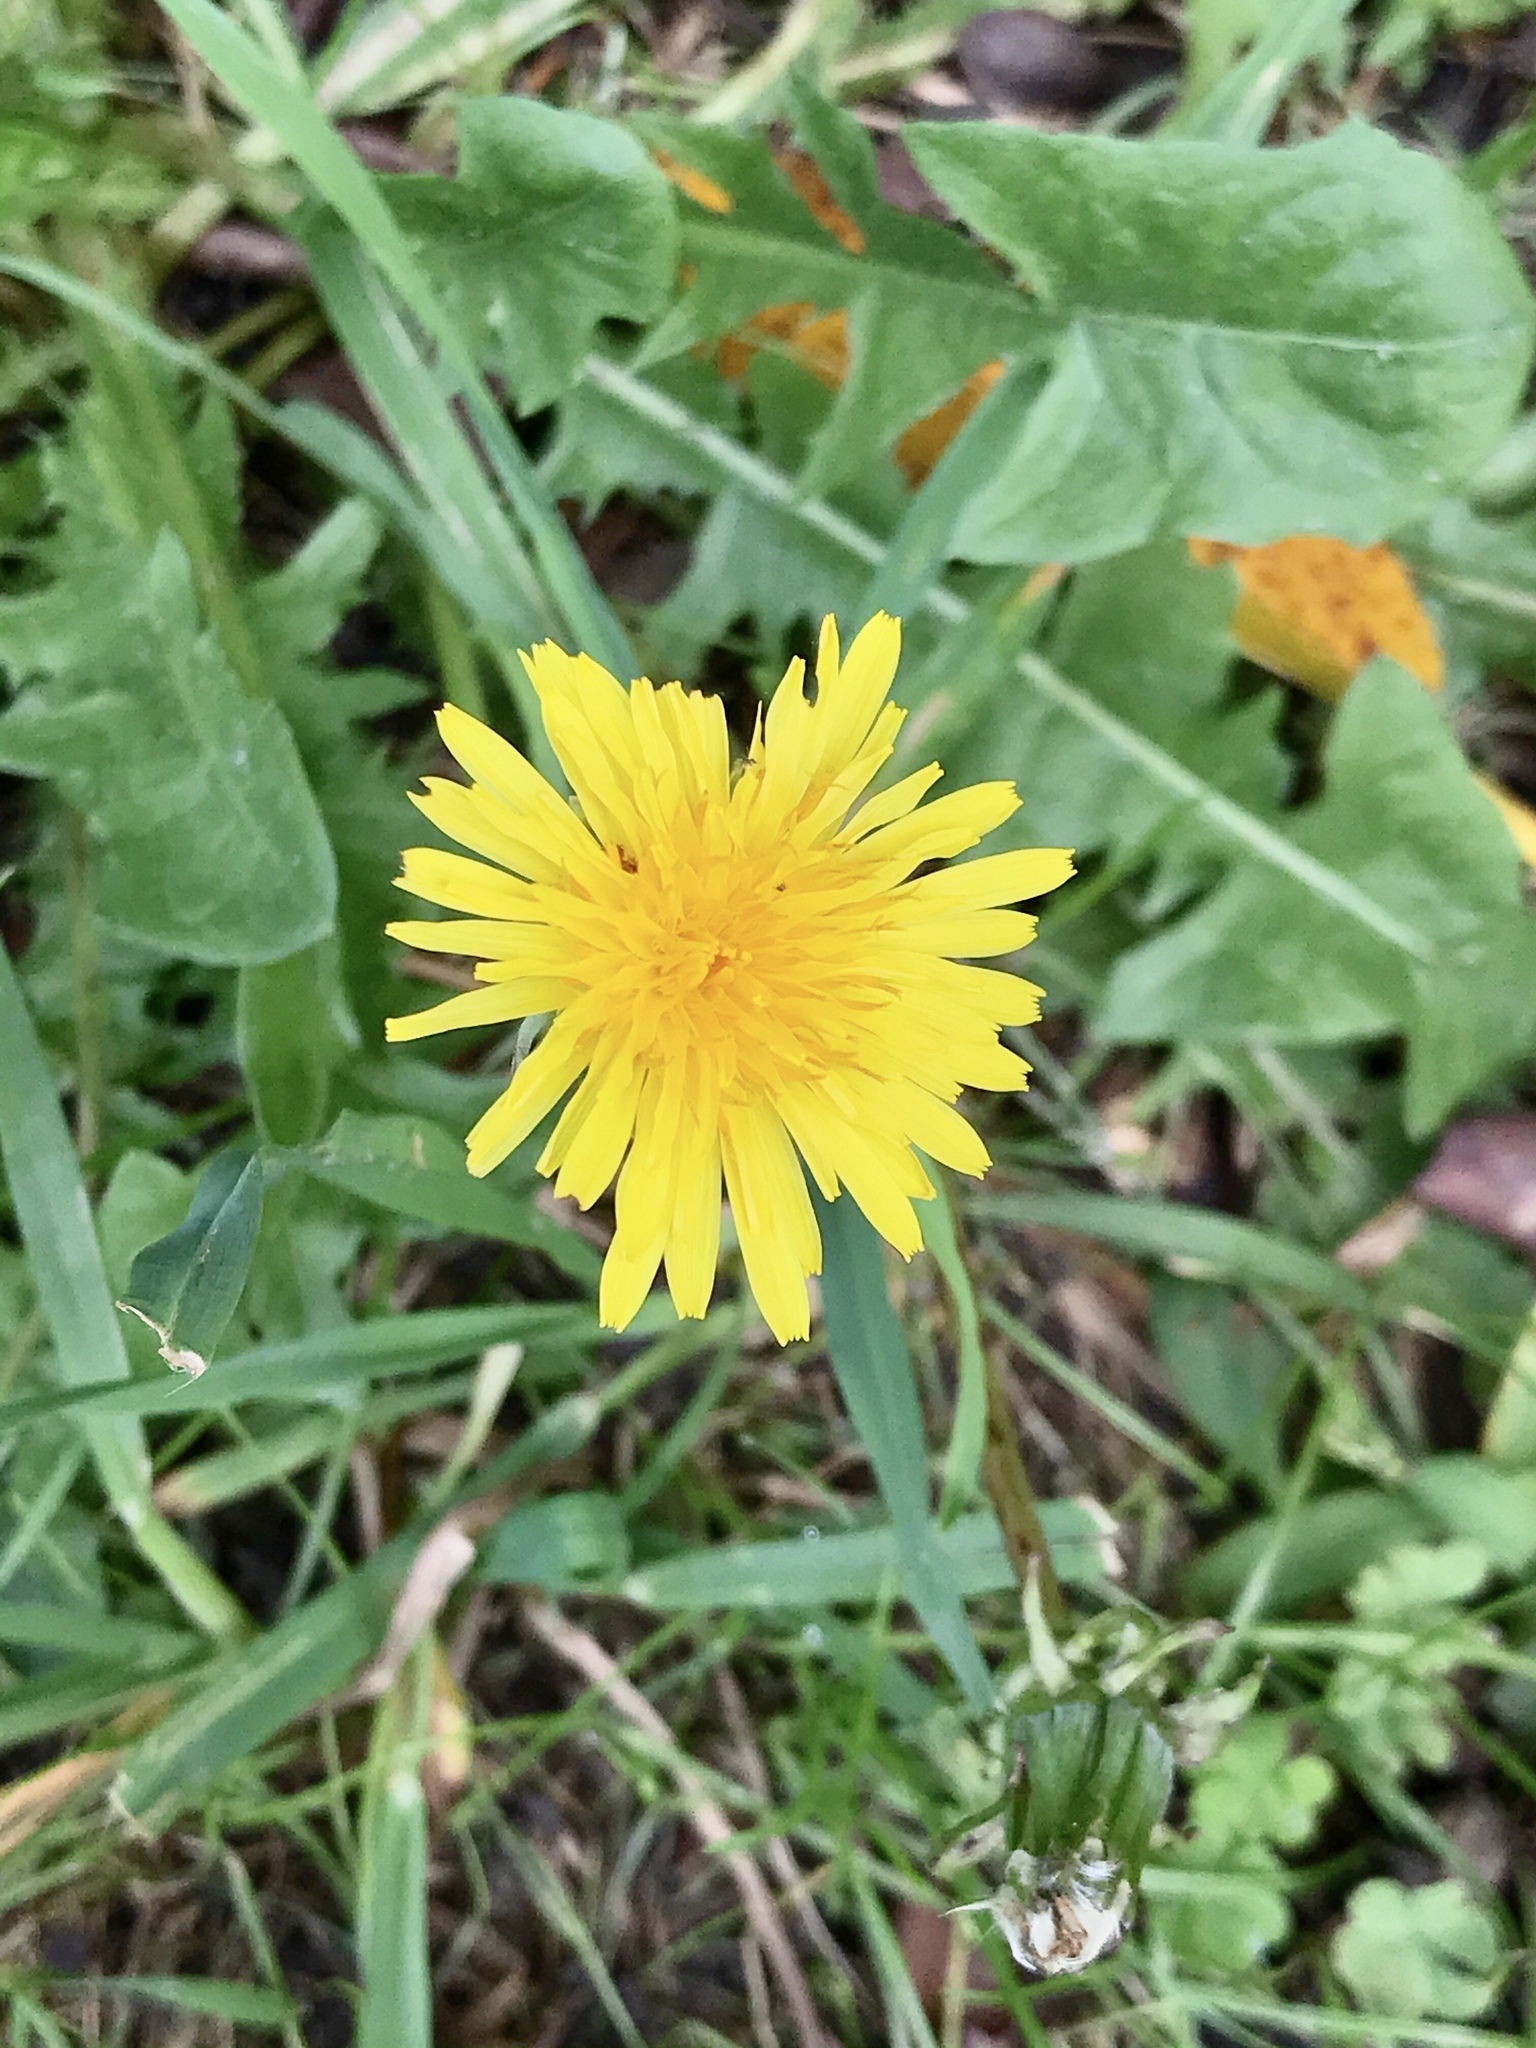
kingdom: Plantae
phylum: Tracheophyta
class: Magnoliopsida
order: Asterales
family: Asteraceae
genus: Taraxacum
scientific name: Taraxacum officinale
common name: Common dandelion
